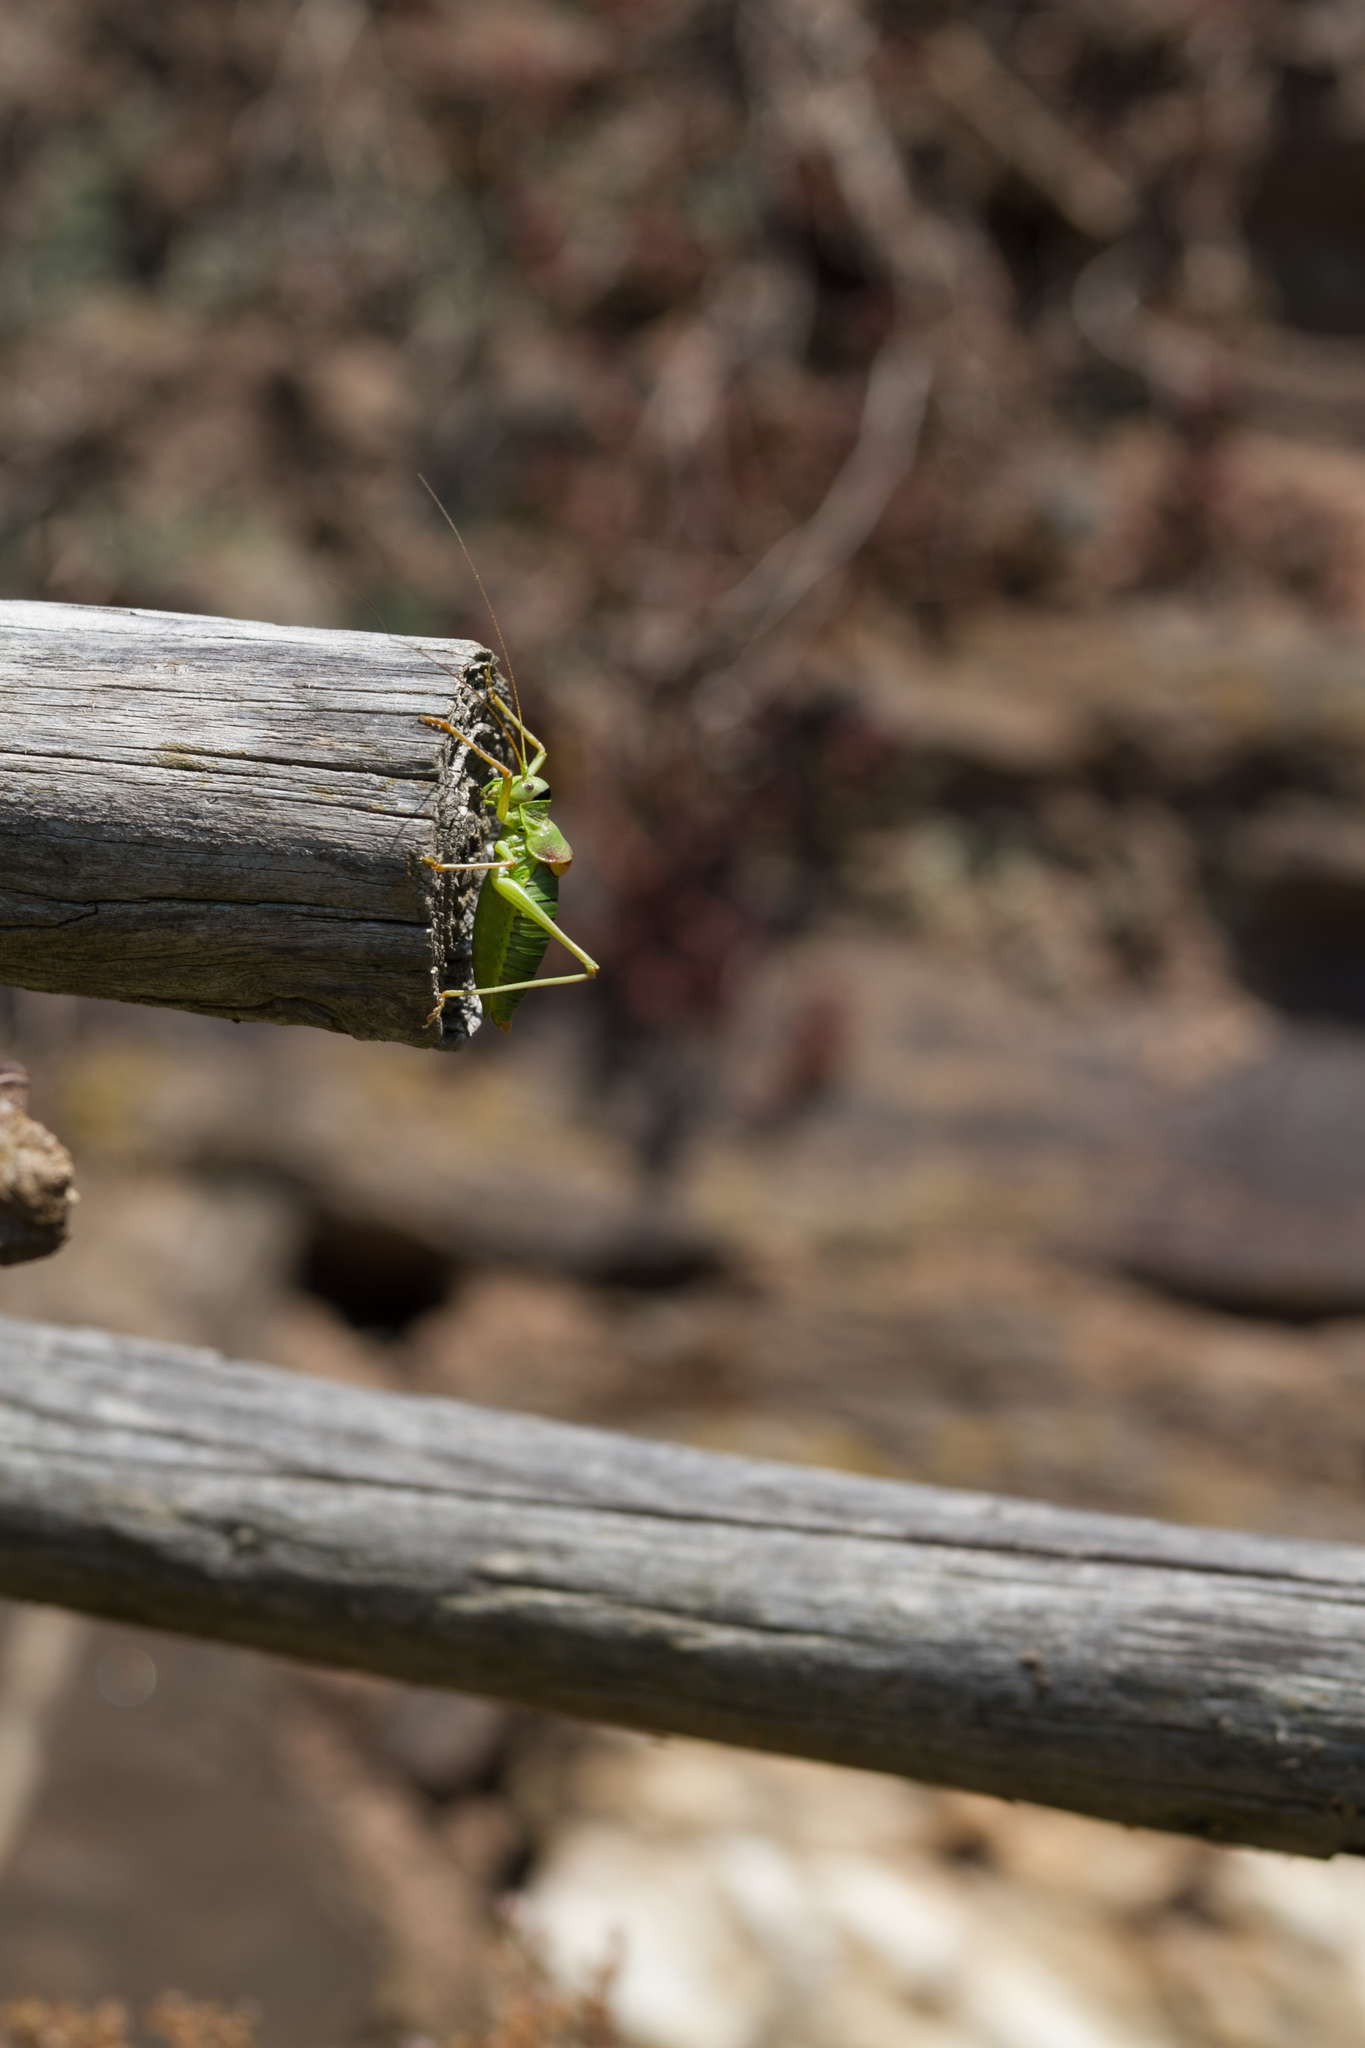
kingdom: Animalia
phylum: Arthropoda
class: Insecta
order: Orthoptera
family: Tettigoniidae
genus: Ephippiger
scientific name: Ephippiger diurnus
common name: Western saddle bush-cricket
